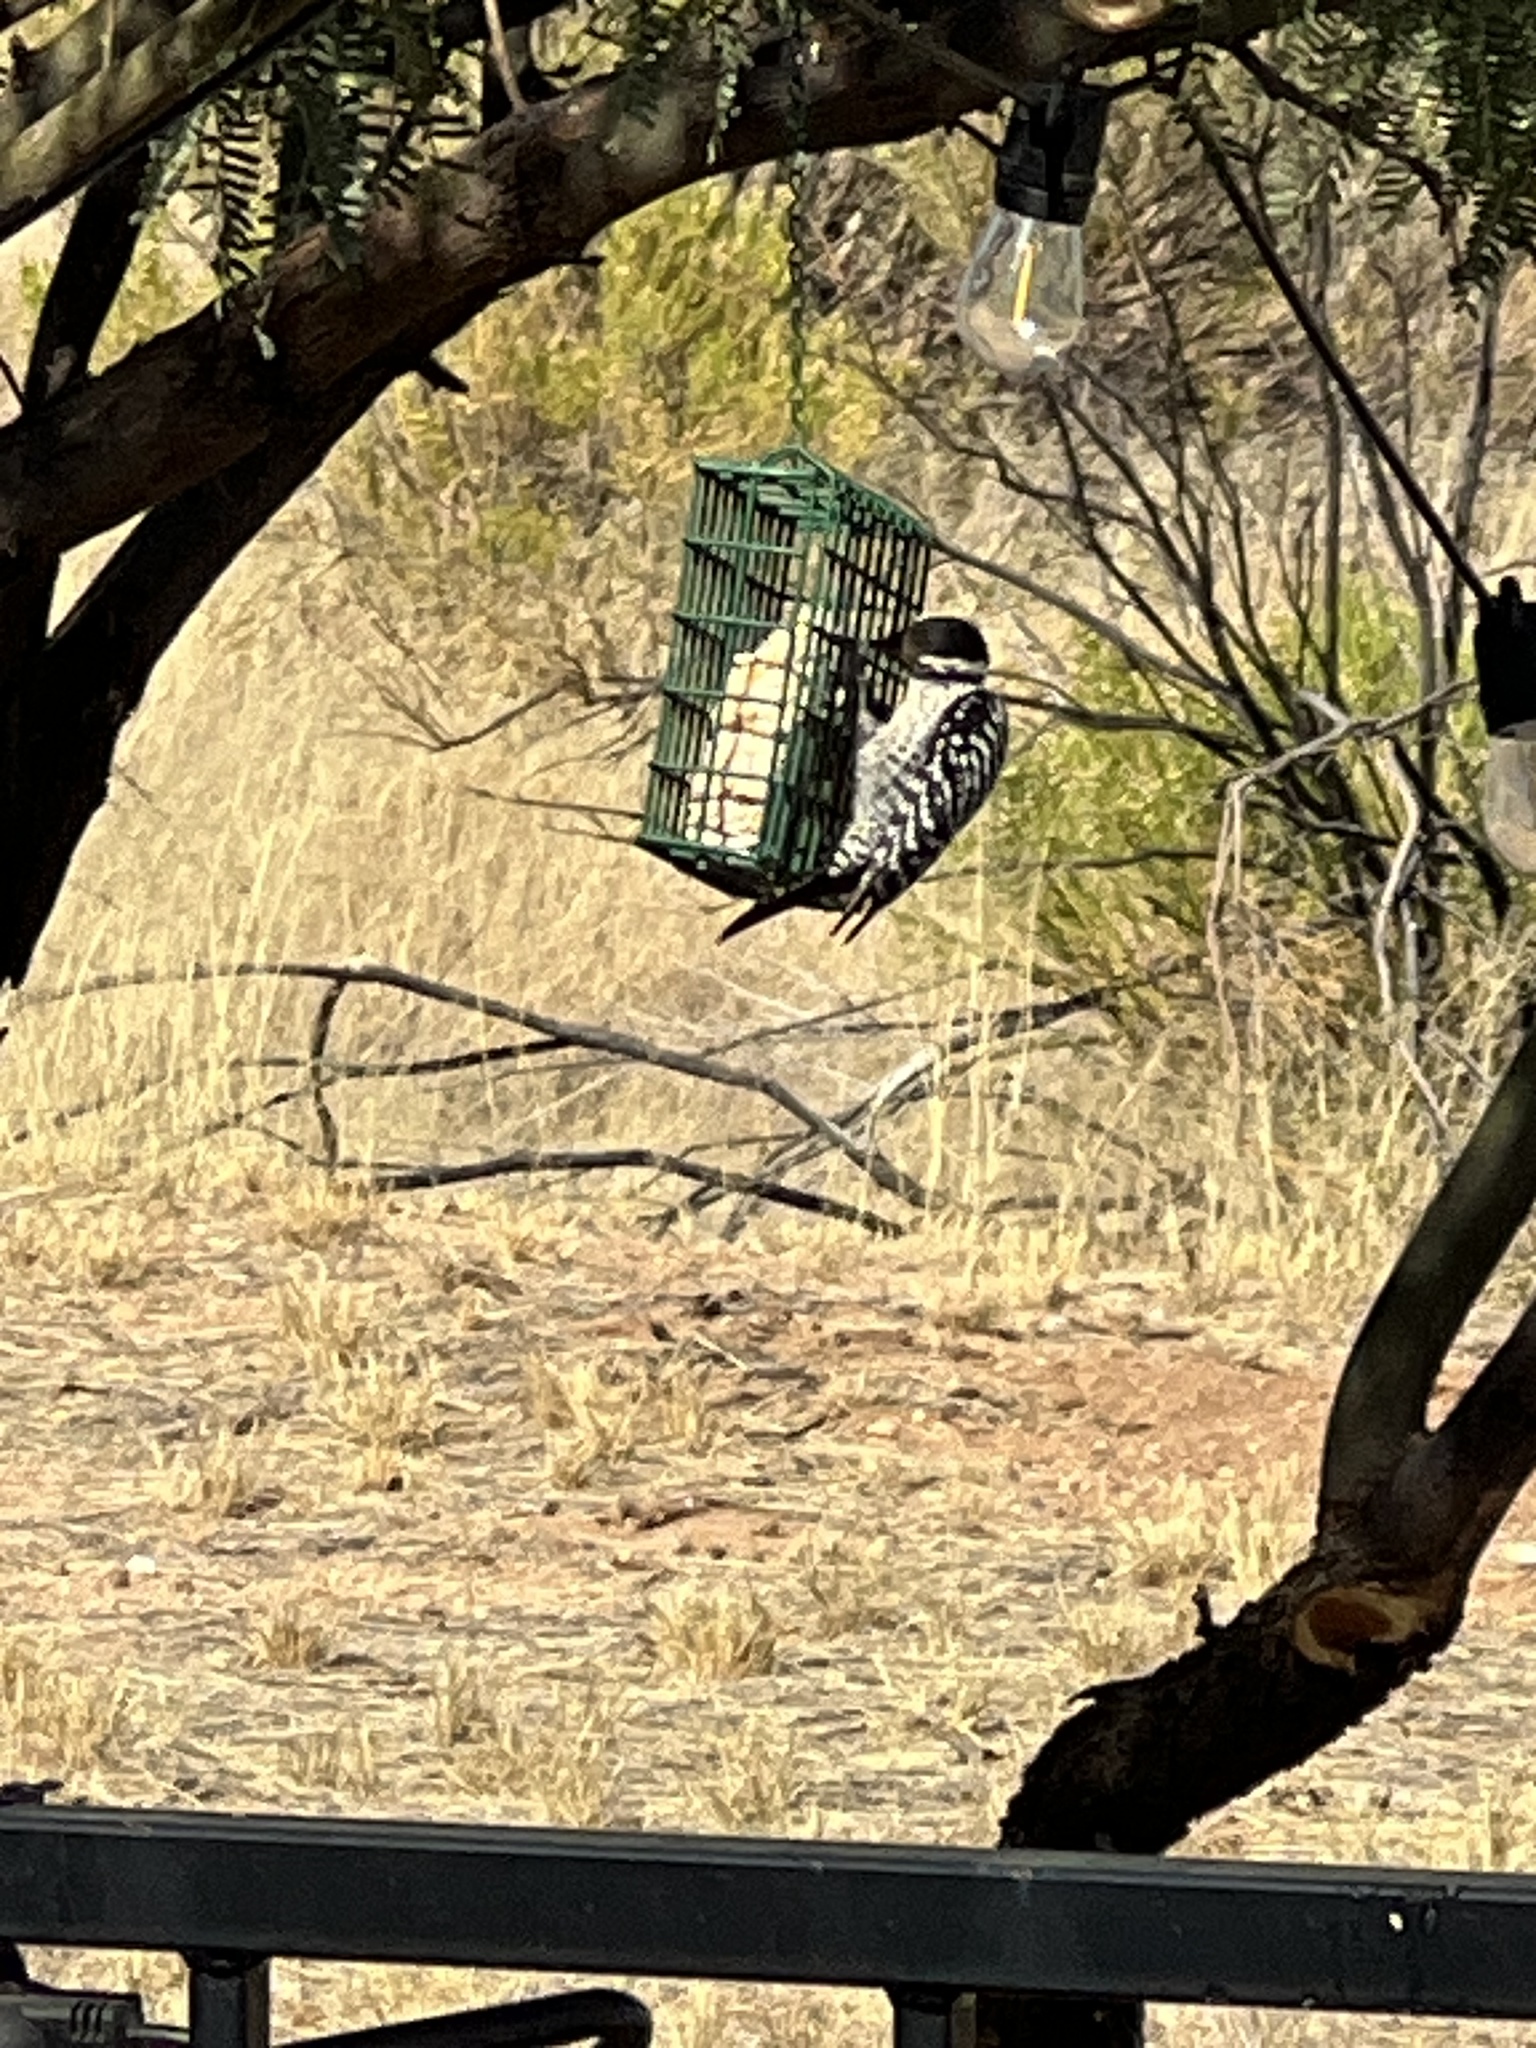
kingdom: Animalia
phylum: Chordata
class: Aves
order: Piciformes
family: Picidae
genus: Dryobates
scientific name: Dryobates scalaris
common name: Ladder-backed woodpecker
